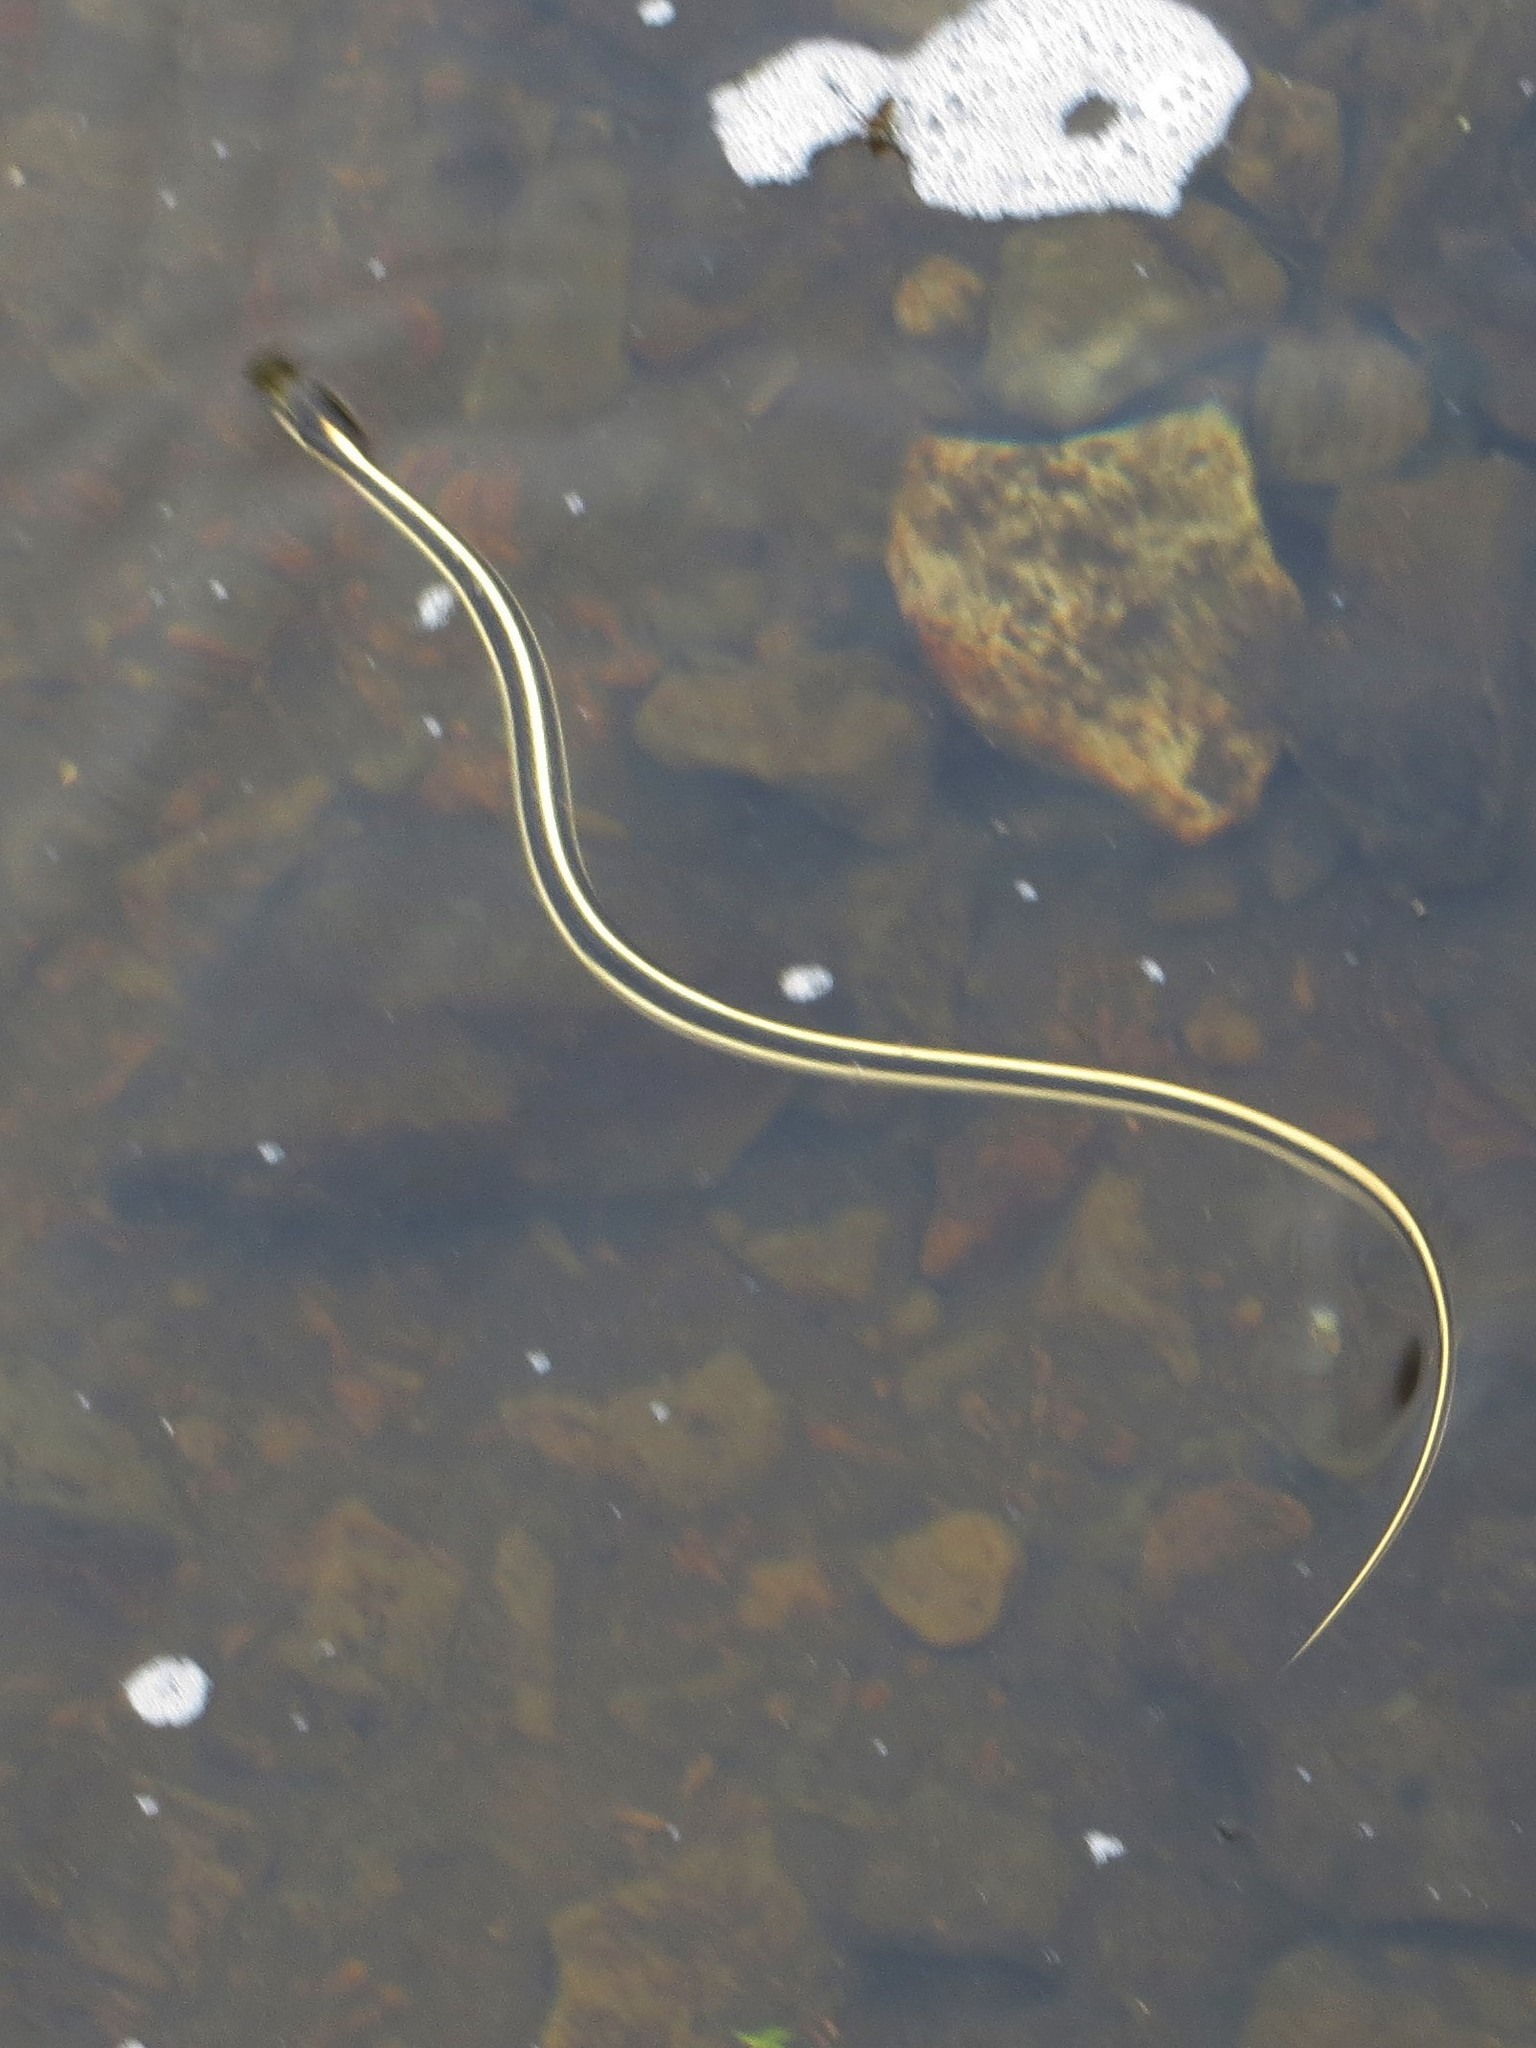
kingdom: Animalia
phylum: Chordata
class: Squamata
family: Colubridae
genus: Thamnophis
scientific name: Thamnophis elegans
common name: Western terrestrial garter snake
